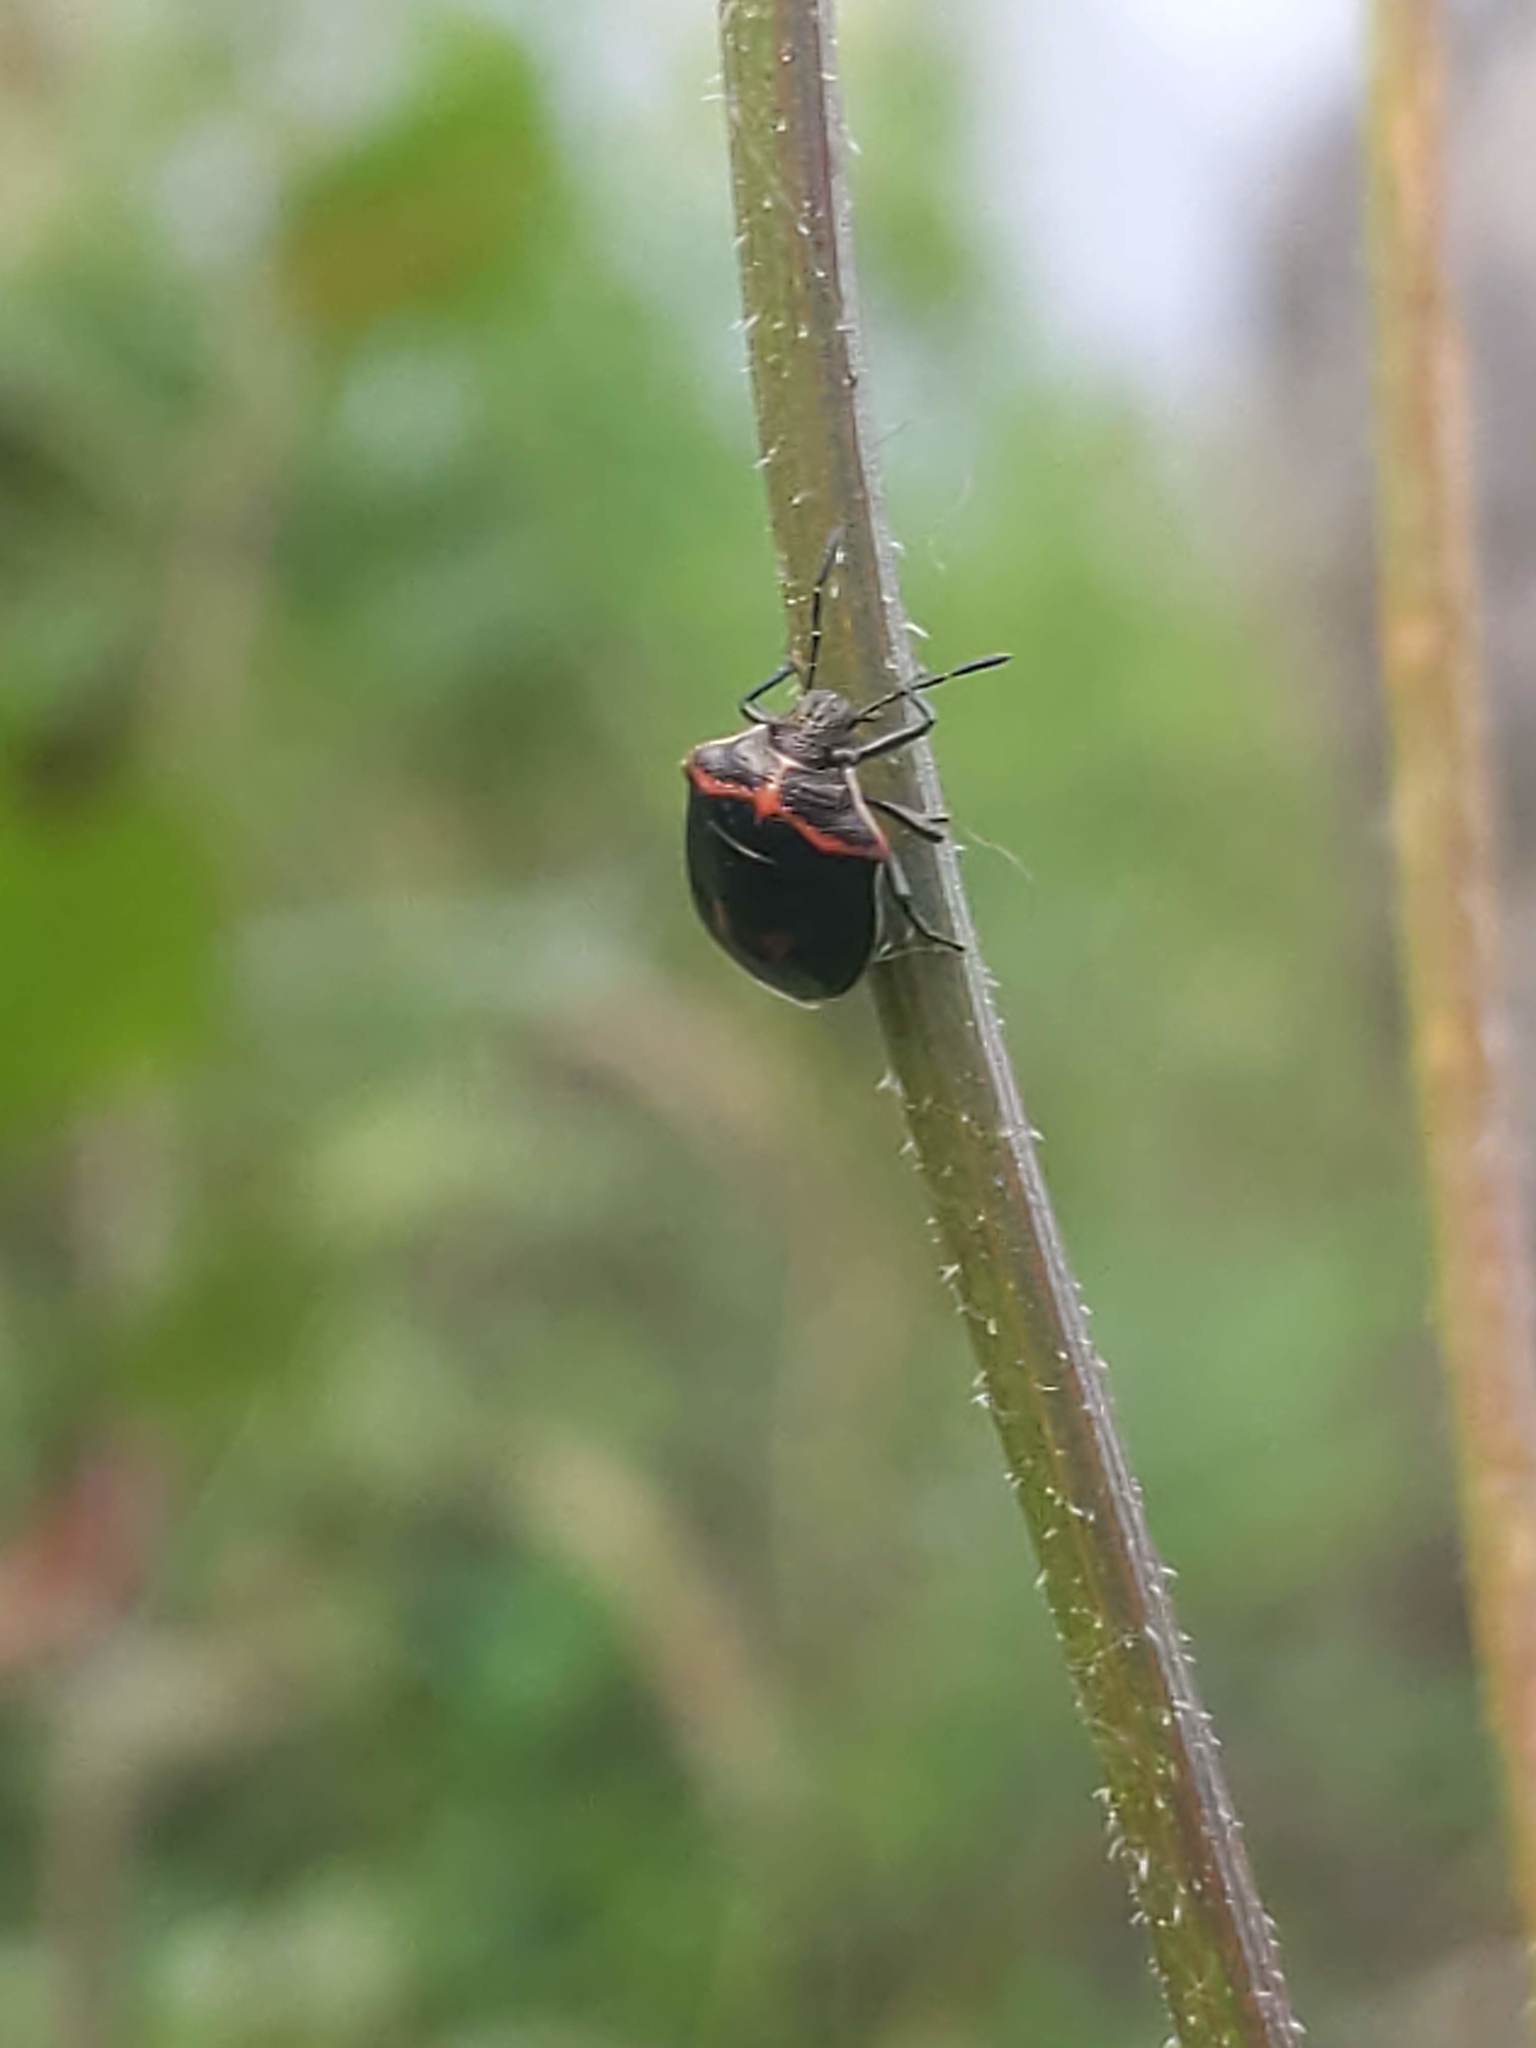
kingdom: Animalia
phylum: Arthropoda
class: Insecta
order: Hemiptera
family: Pentatomidae
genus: Cosmopepla
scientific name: Cosmopepla lintneriana
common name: Twice-stabbed stink bug
